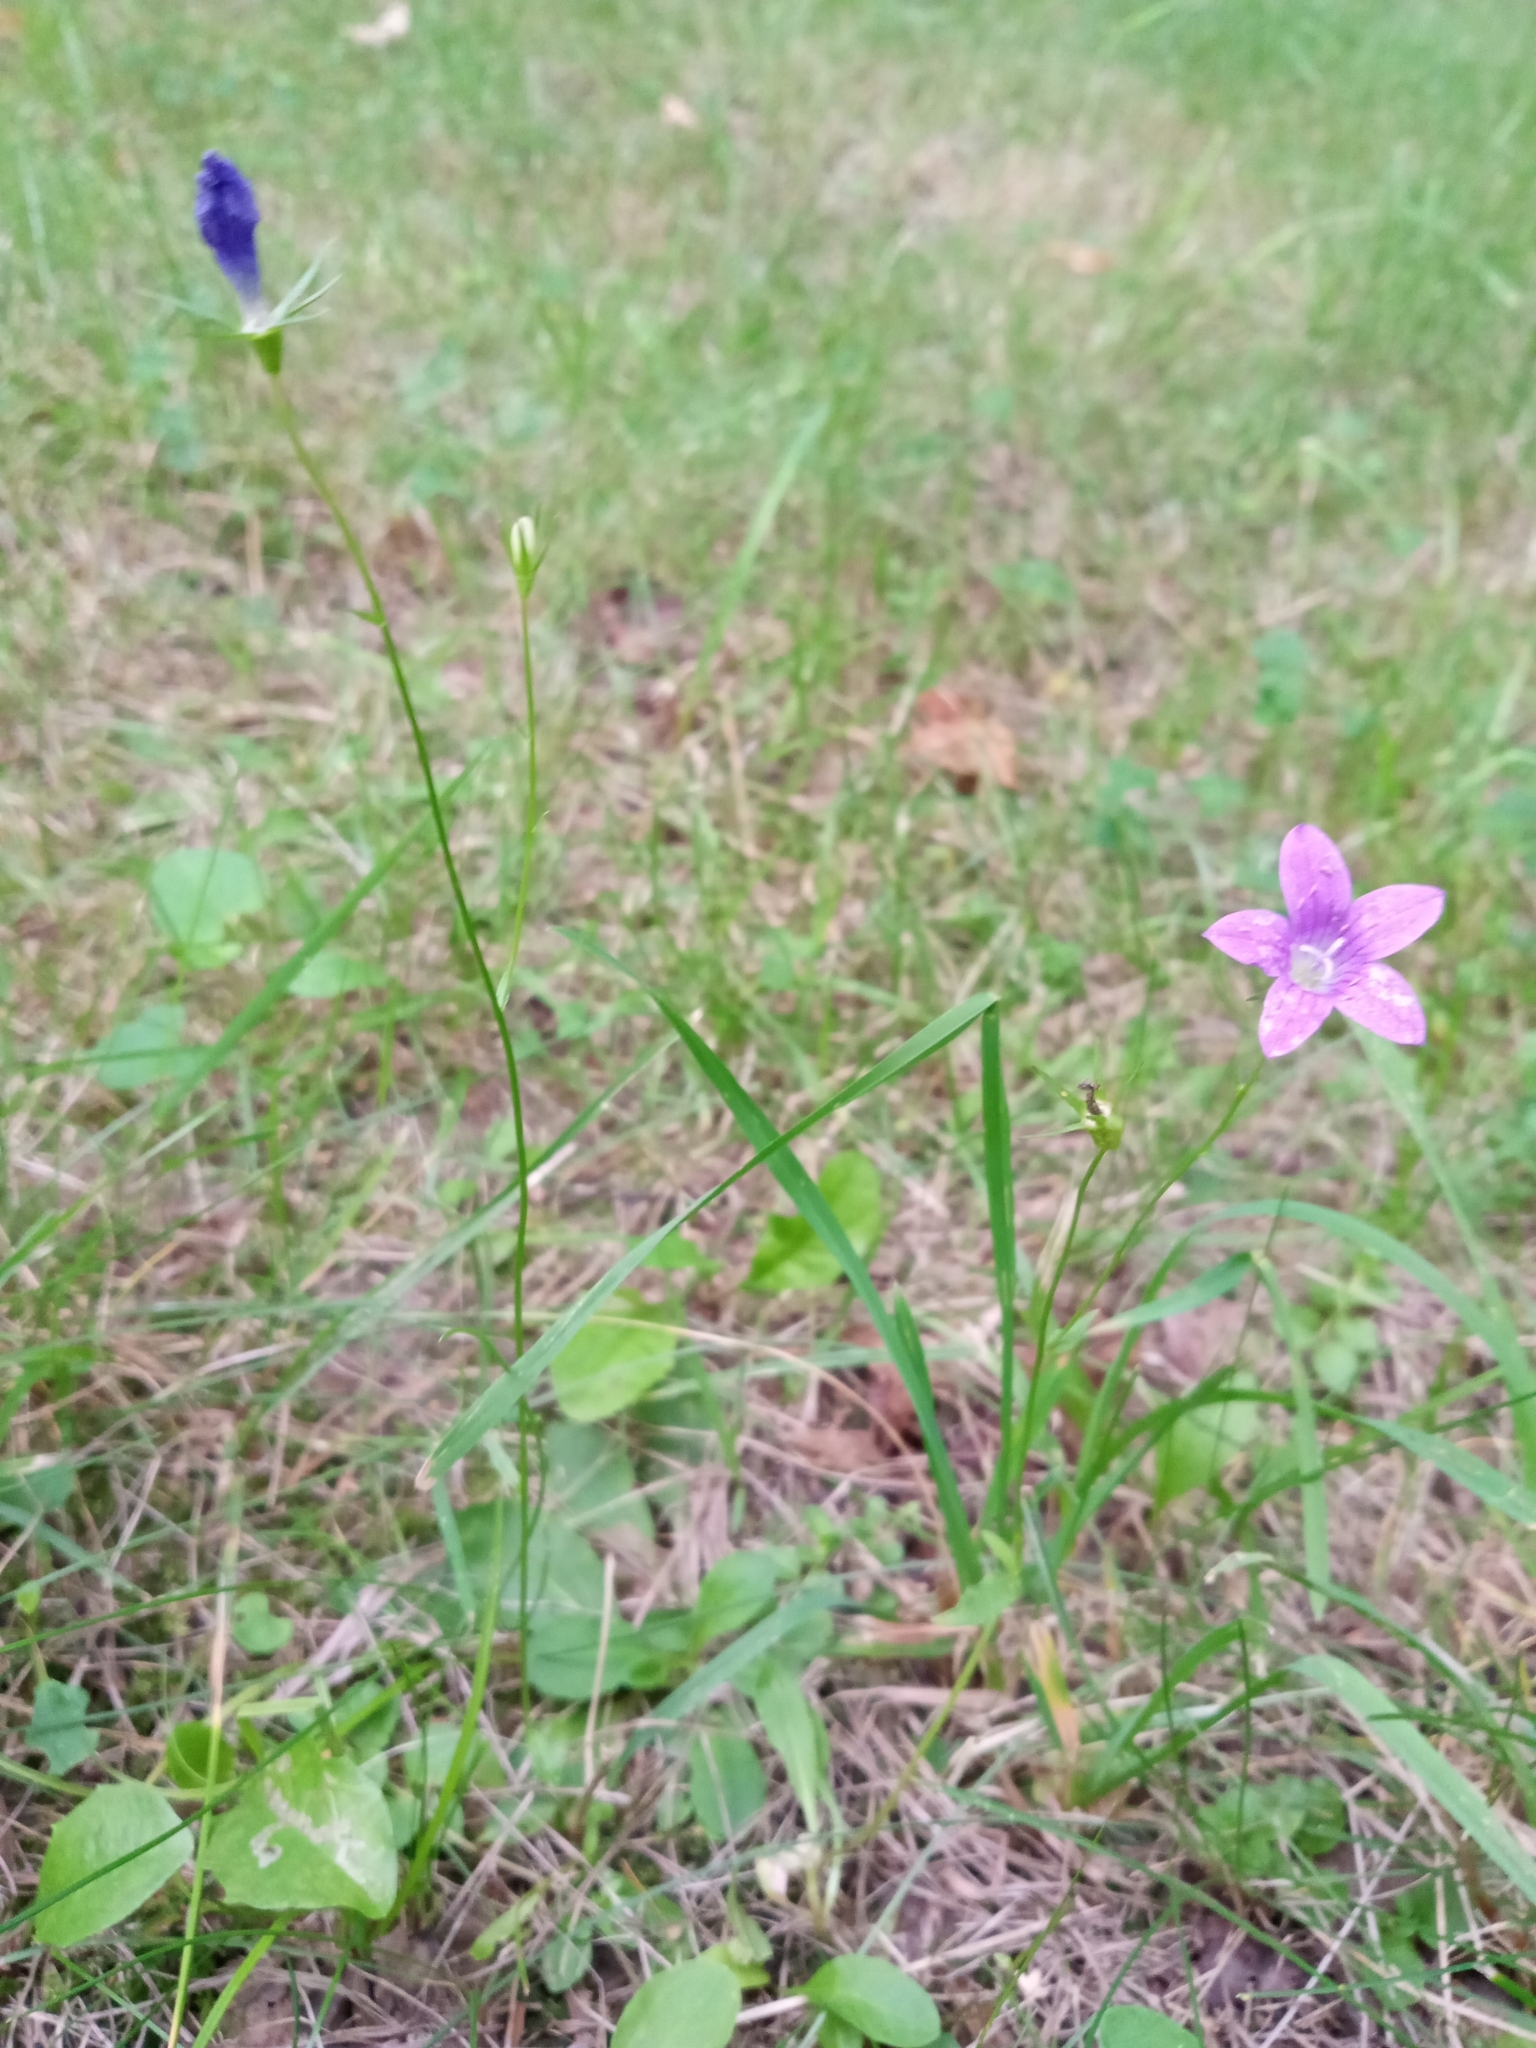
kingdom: Plantae
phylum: Tracheophyta
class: Magnoliopsida
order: Asterales
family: Campanulaceae
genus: Campanula
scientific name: Campanula patula
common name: Spreading bellflower
